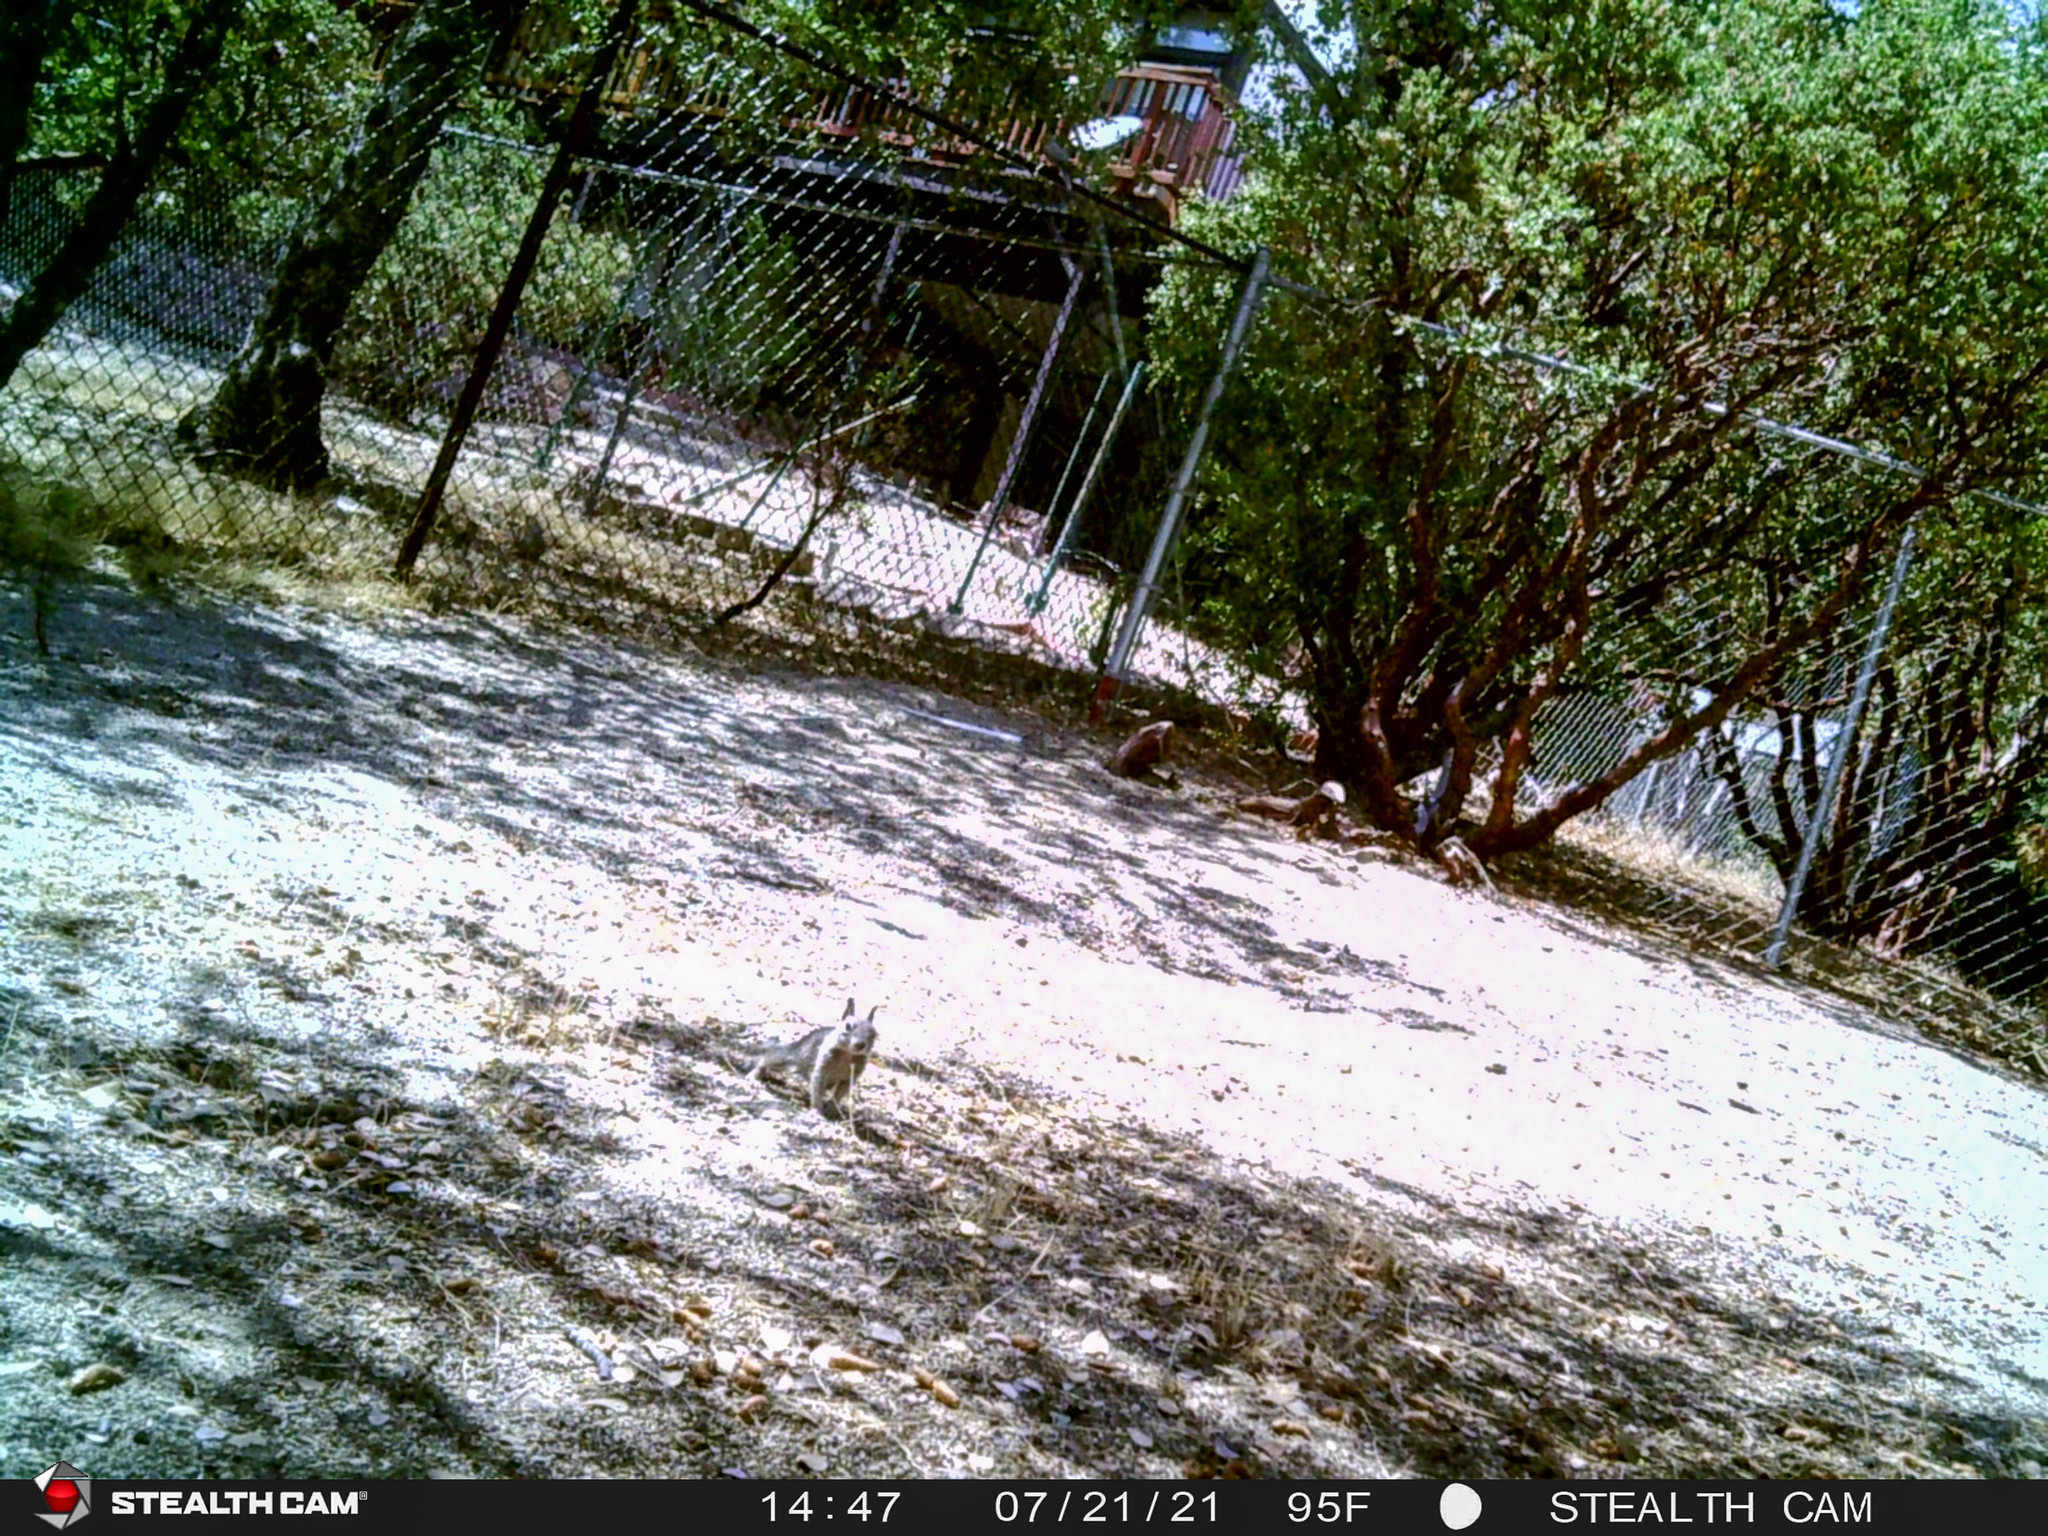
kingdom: Animalia
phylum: Chordata
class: Mammalia
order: Rodentia
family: Sciuridae
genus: Otospermophilus
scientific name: Otospermophilus beecheyi
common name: California ground squirrel
